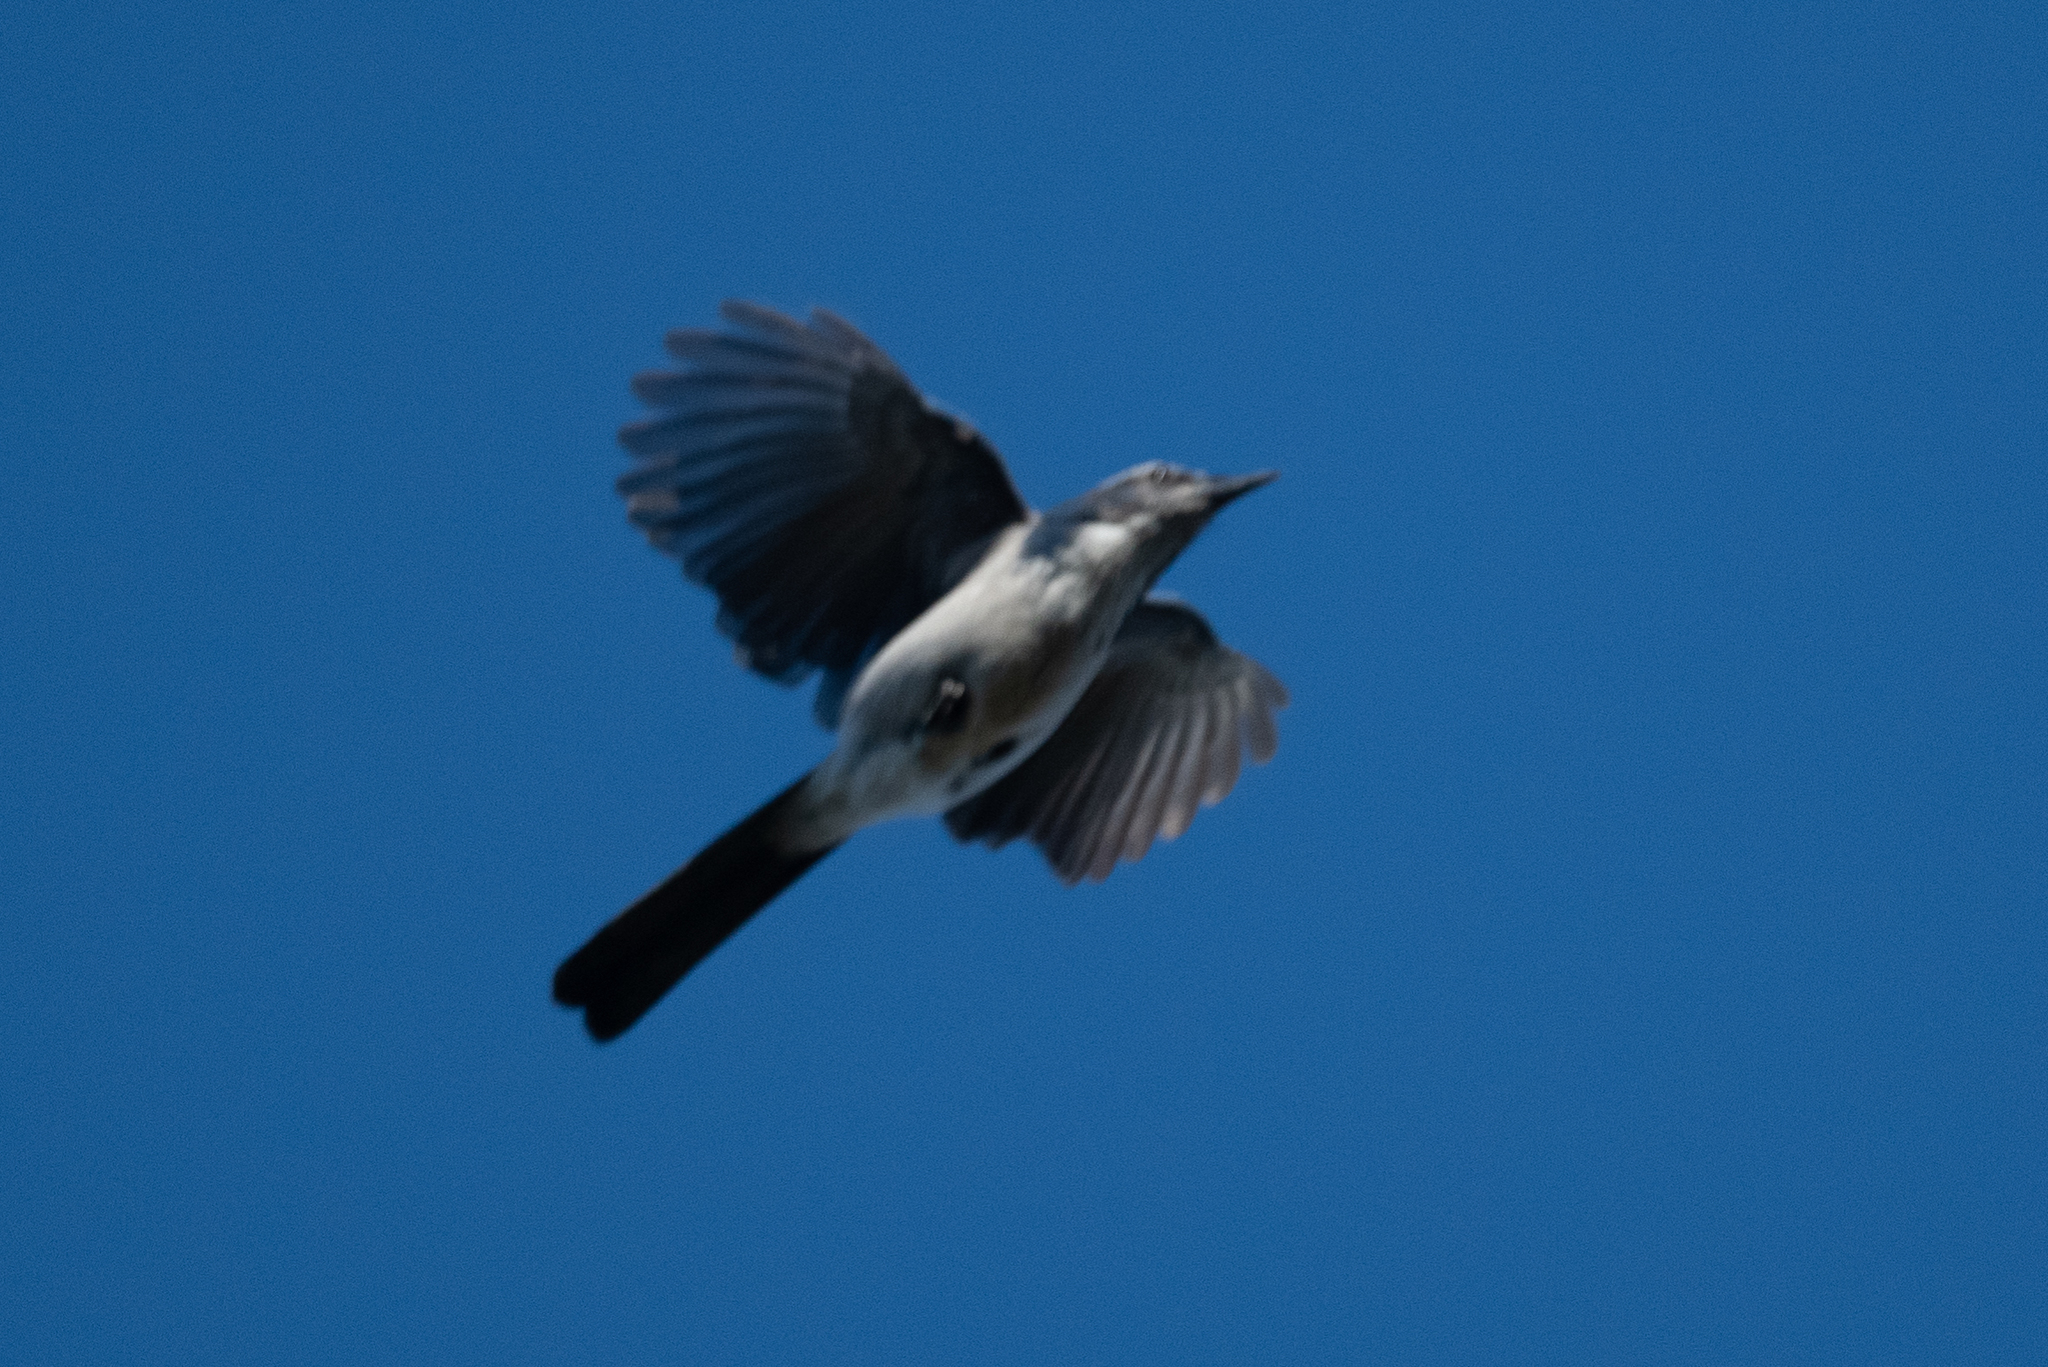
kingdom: Animalia
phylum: Chordata
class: Aves
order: Passeriformes
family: Corvidae
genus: Aphelocoma
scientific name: Aphelocoma californica
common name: California scrub-jay
